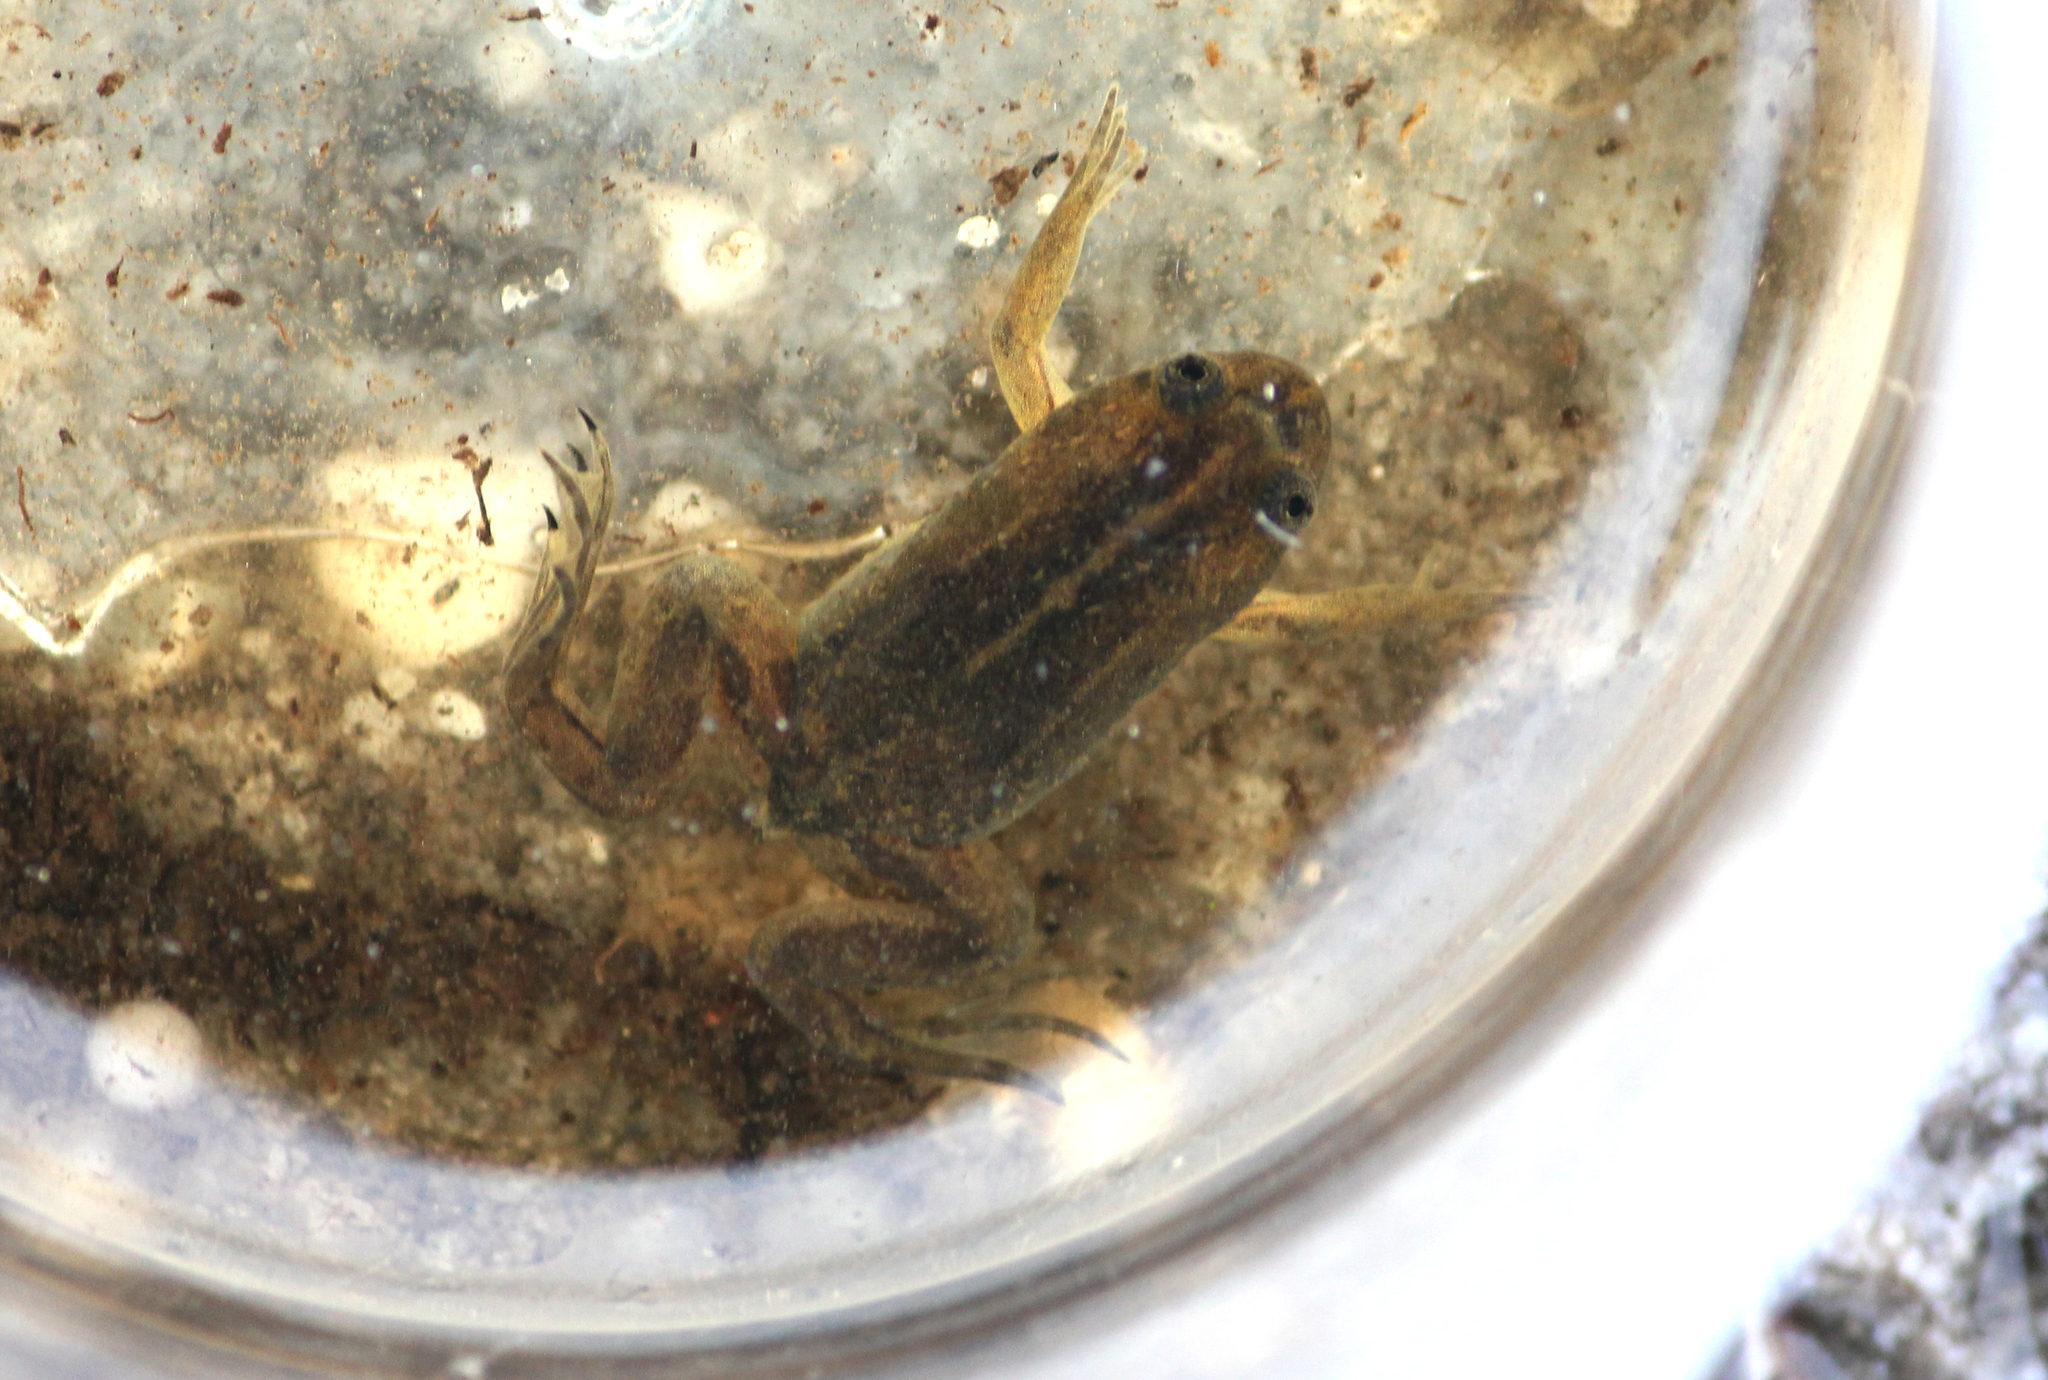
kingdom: Animalia
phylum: Chordata
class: Amphibia
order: Anura
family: Pipidae
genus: Xenopus
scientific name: Xenopus gilli
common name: Gill's platanna
